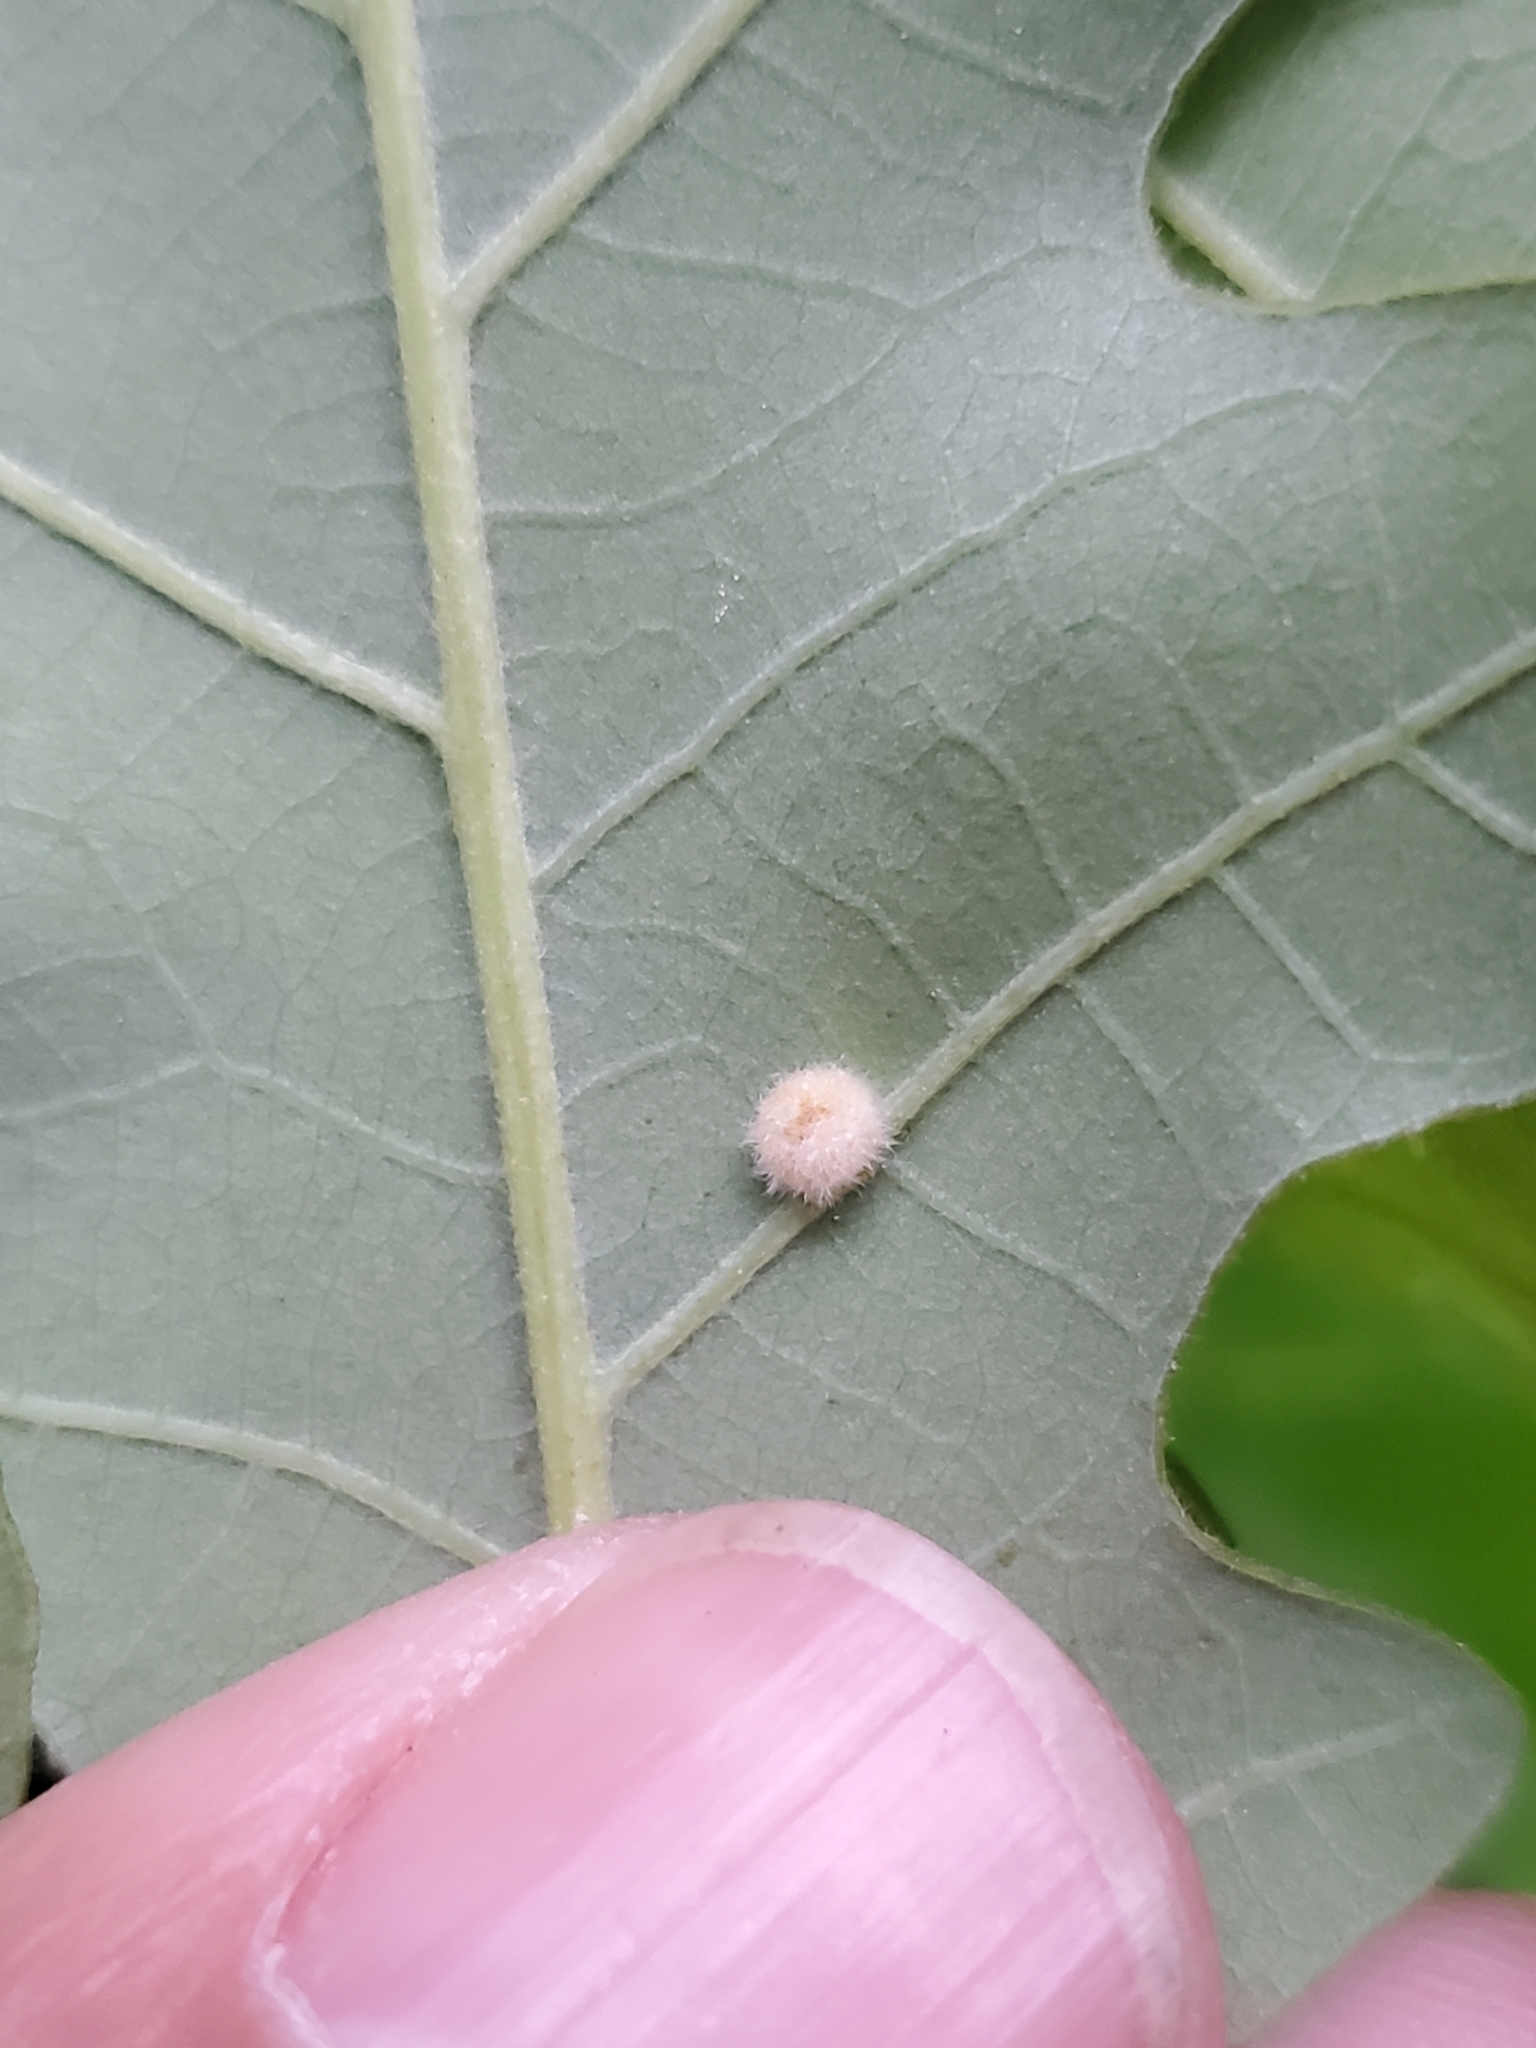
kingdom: Animalia
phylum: Arthropoda
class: Insecta
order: Hymenoptera
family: Cynipidae
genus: Philonix
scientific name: Philonix fulvicollis
